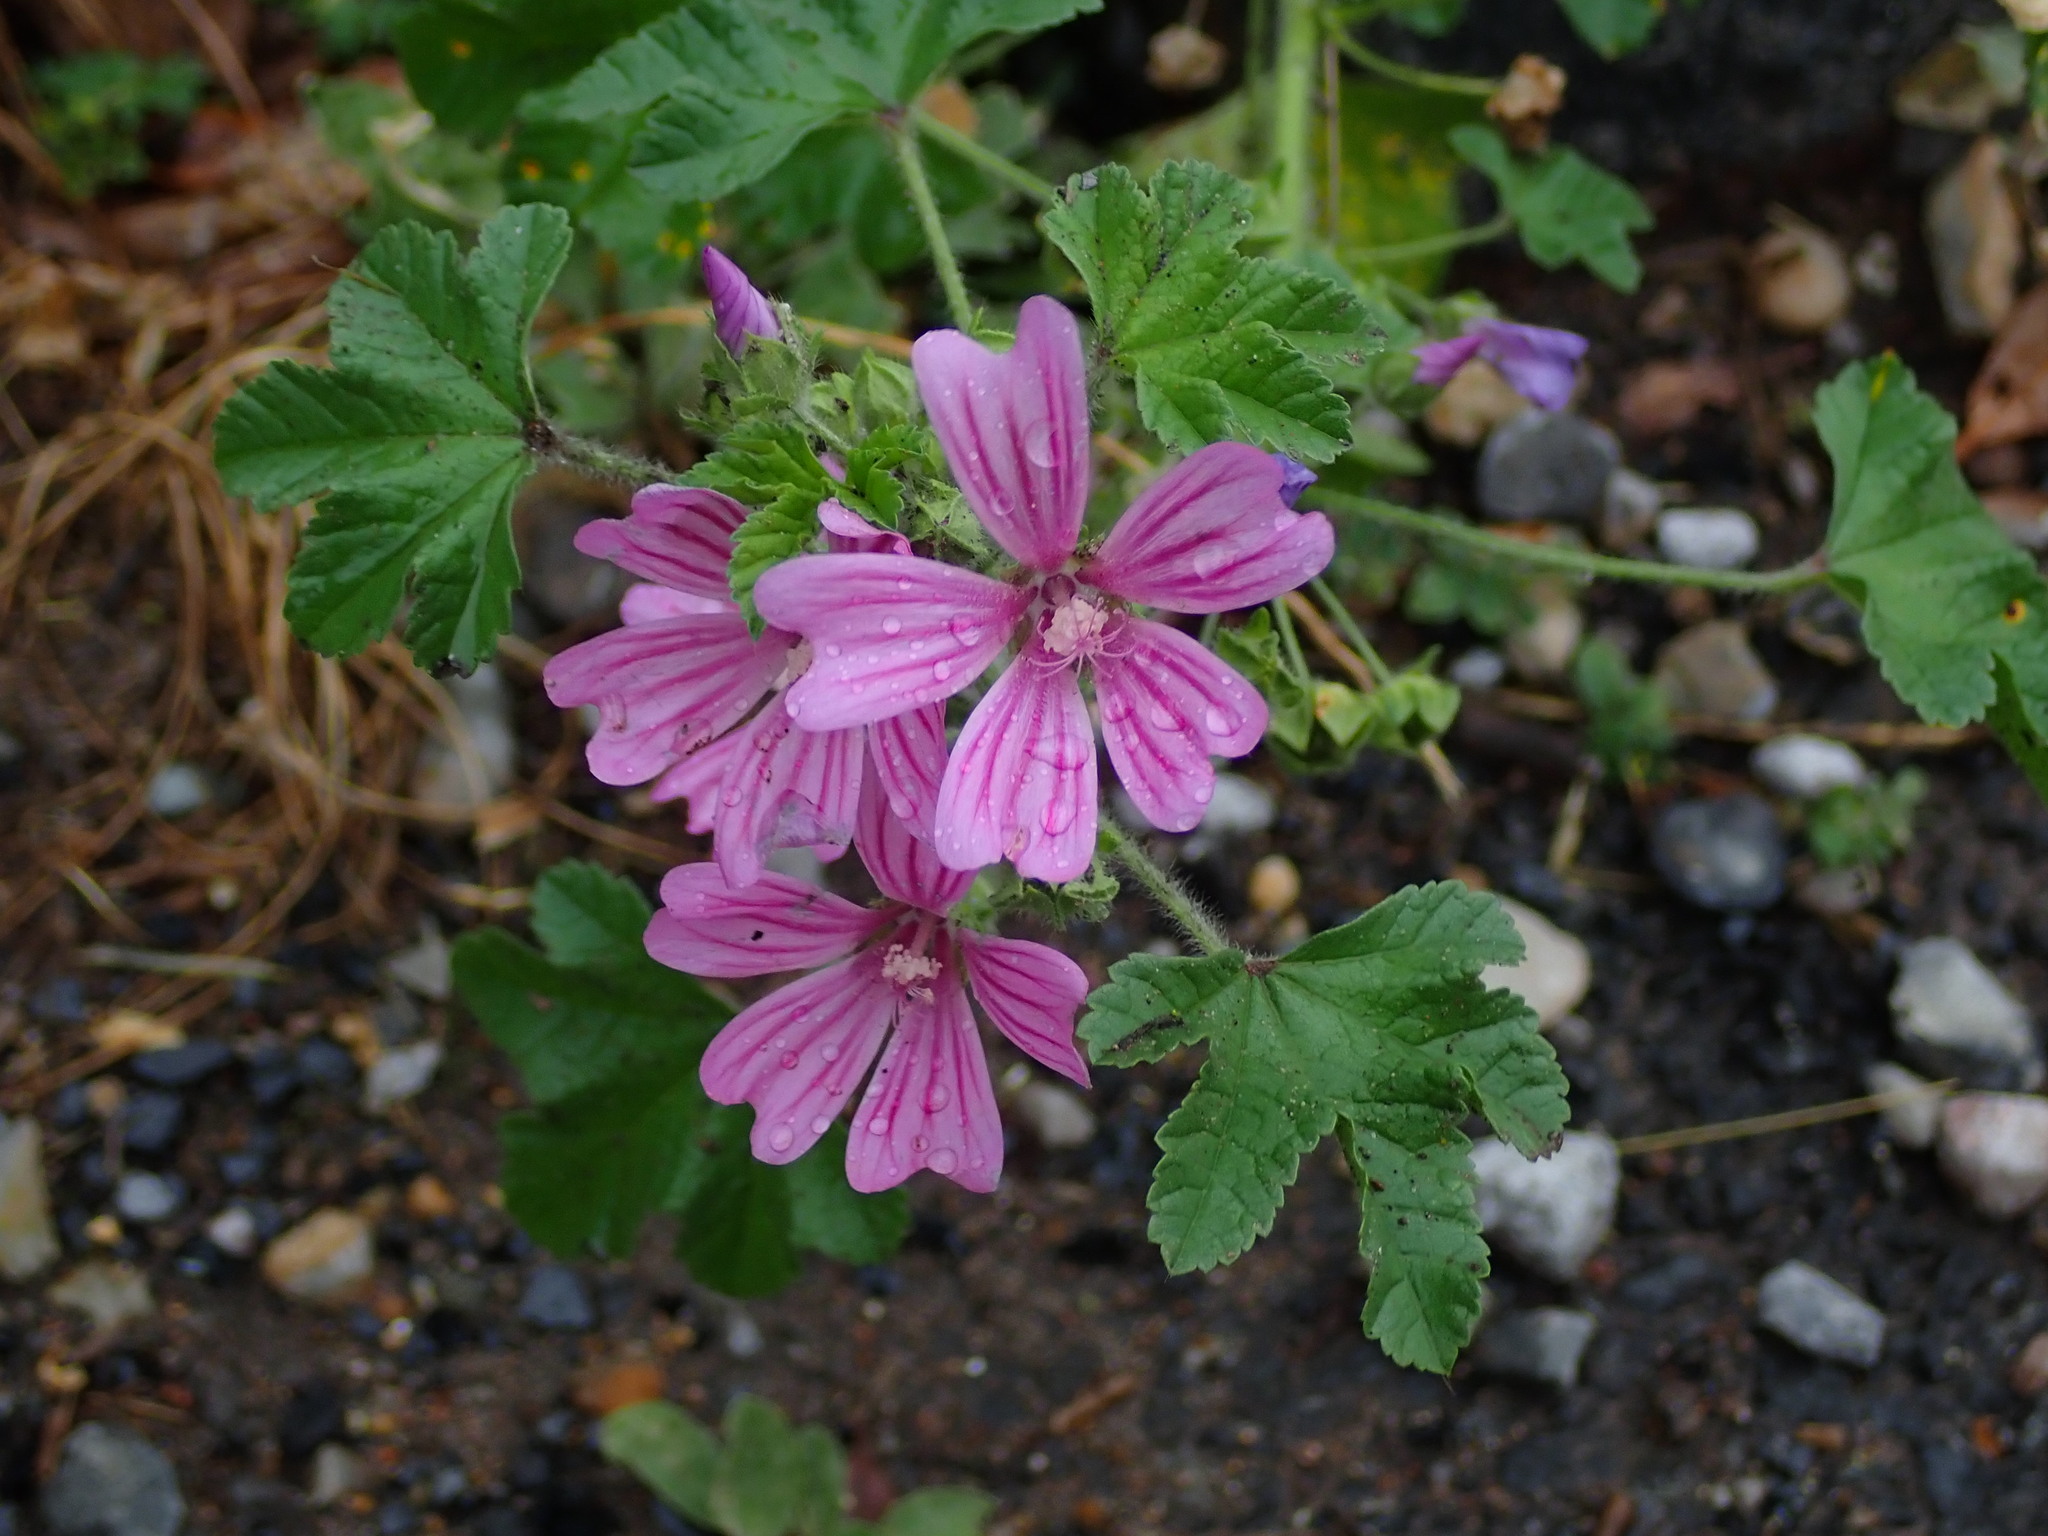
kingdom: Plantae
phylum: Tracheophyta
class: Magnoliopsida
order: Malvales
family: Malvaceae
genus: Malva
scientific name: Malva sylvestris
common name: Common mallow
